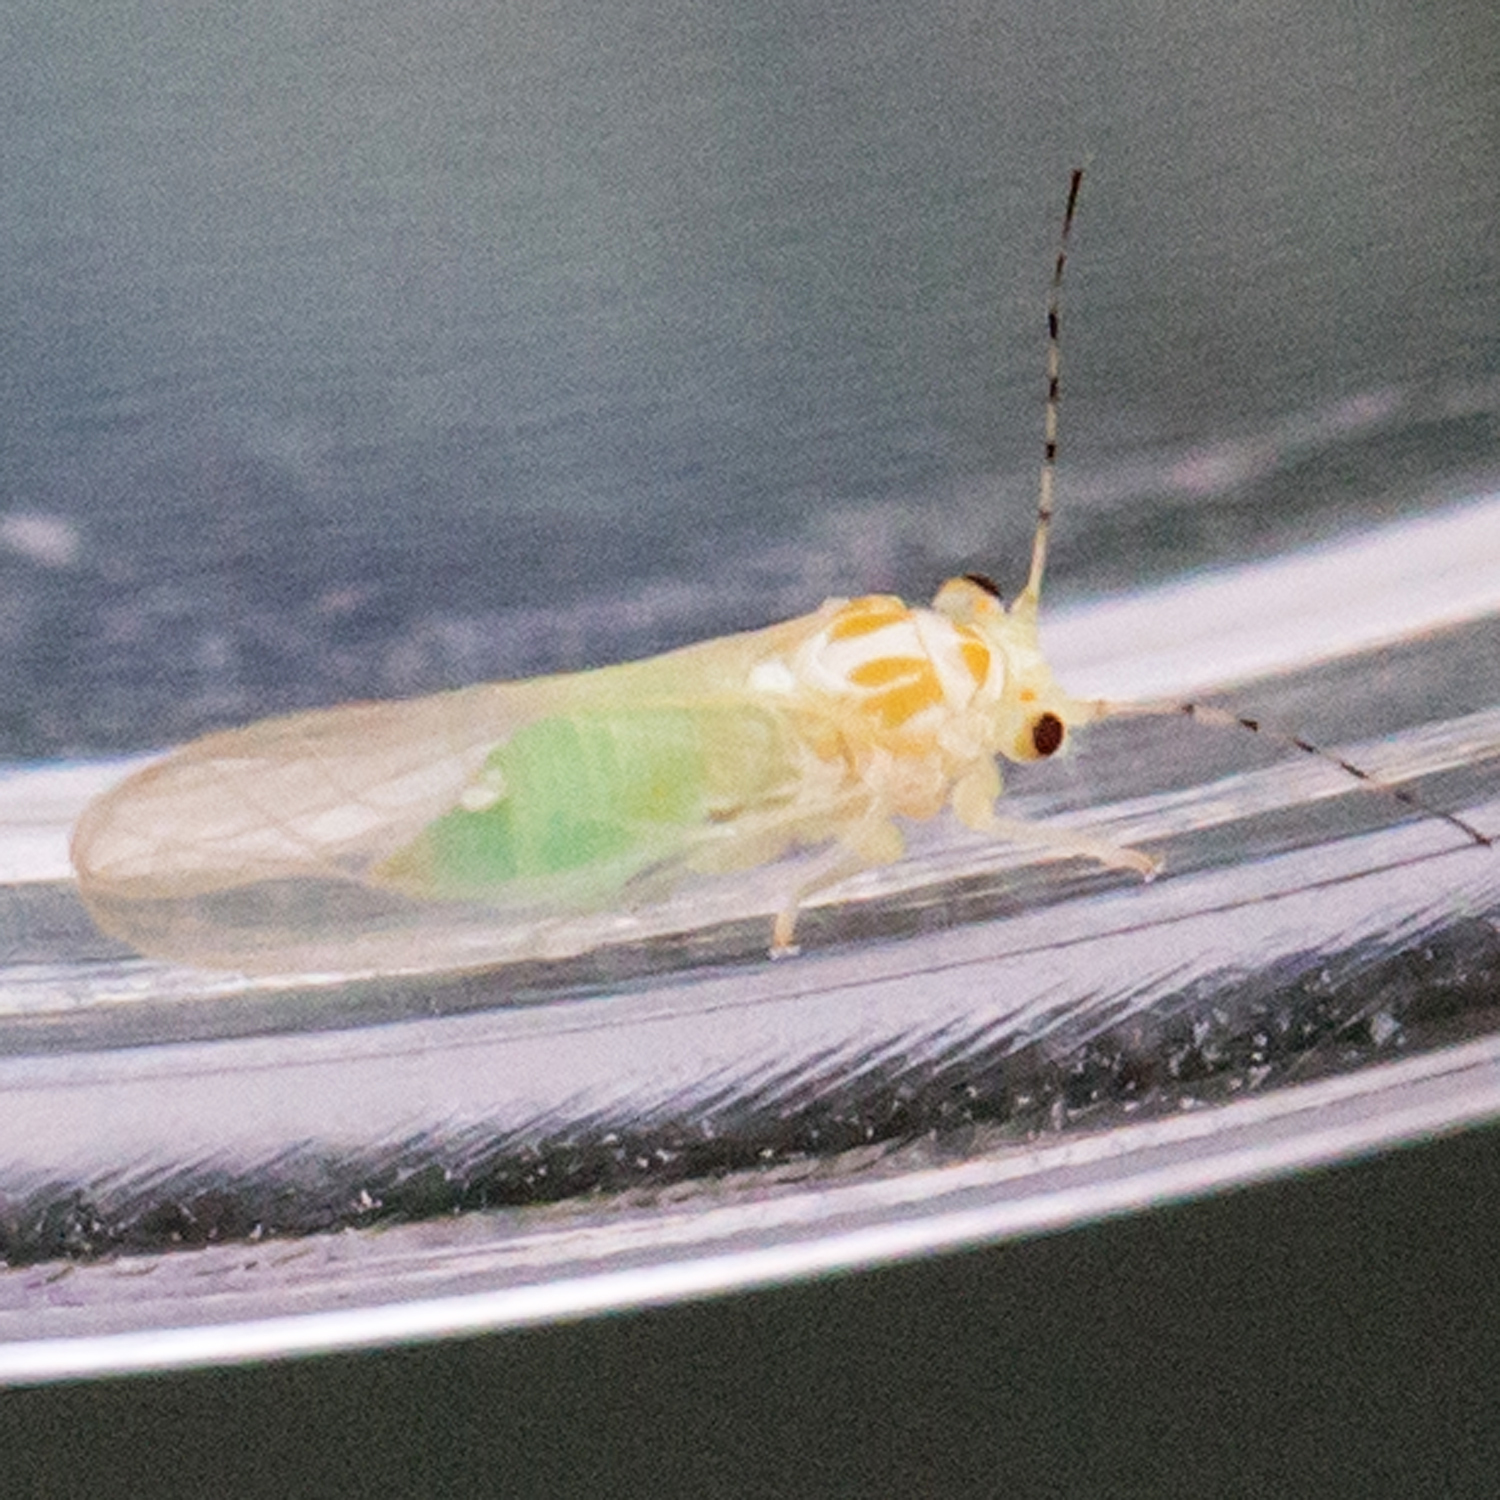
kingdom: Animalia
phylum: Arthropoda
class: Insecta
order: Hemiptera
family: Psyllidae
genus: Cacopsylla
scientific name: Cacopsylla annulata
